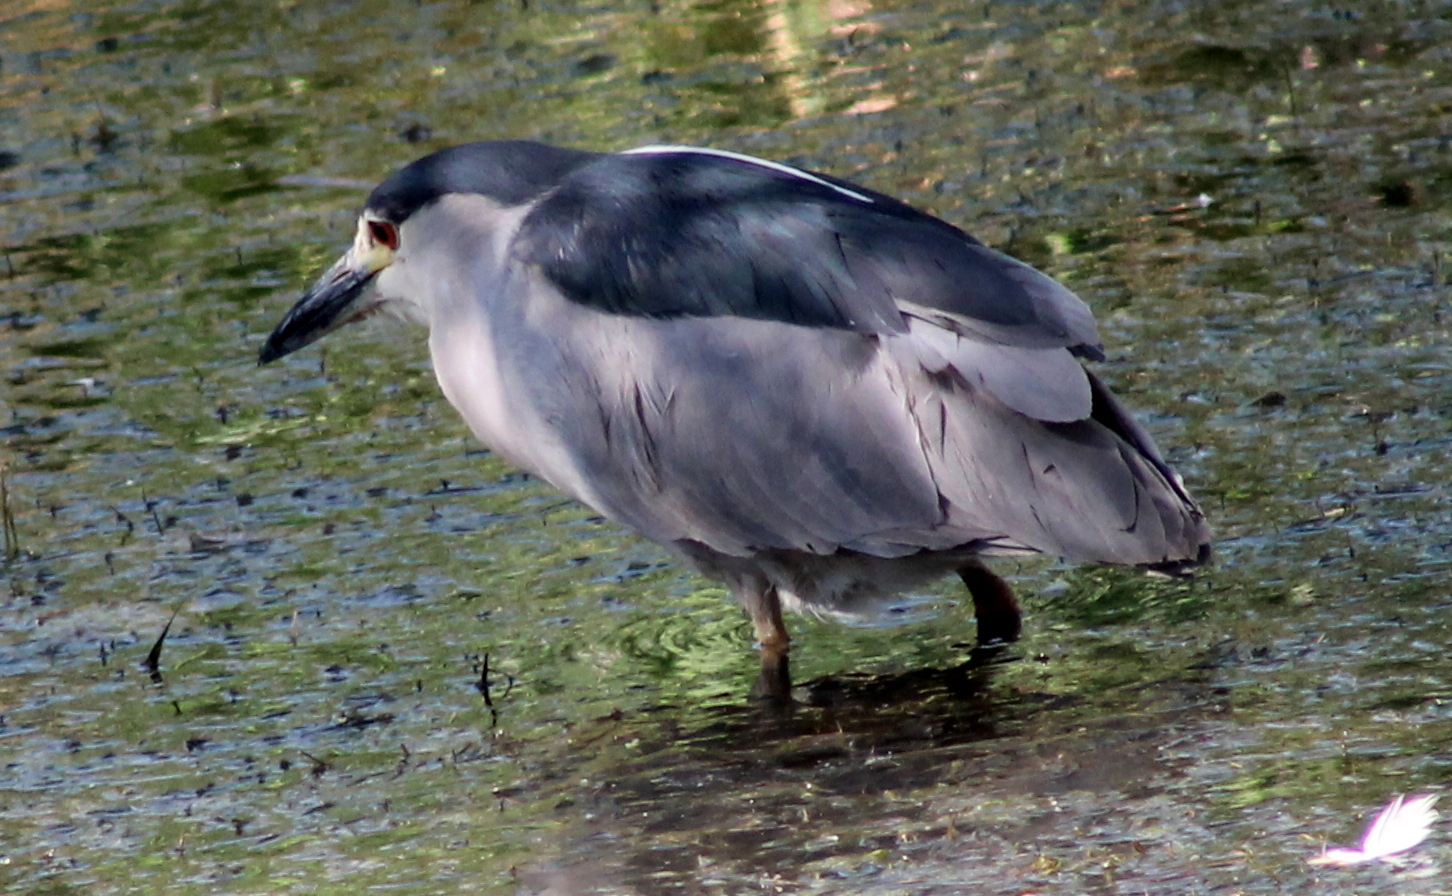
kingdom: Animalia
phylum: Chordata
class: Aves
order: Pelecaniformes
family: Ardeidae
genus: Nycticorax
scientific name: Nycticorax nycticorax
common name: Black-crowned night heron
